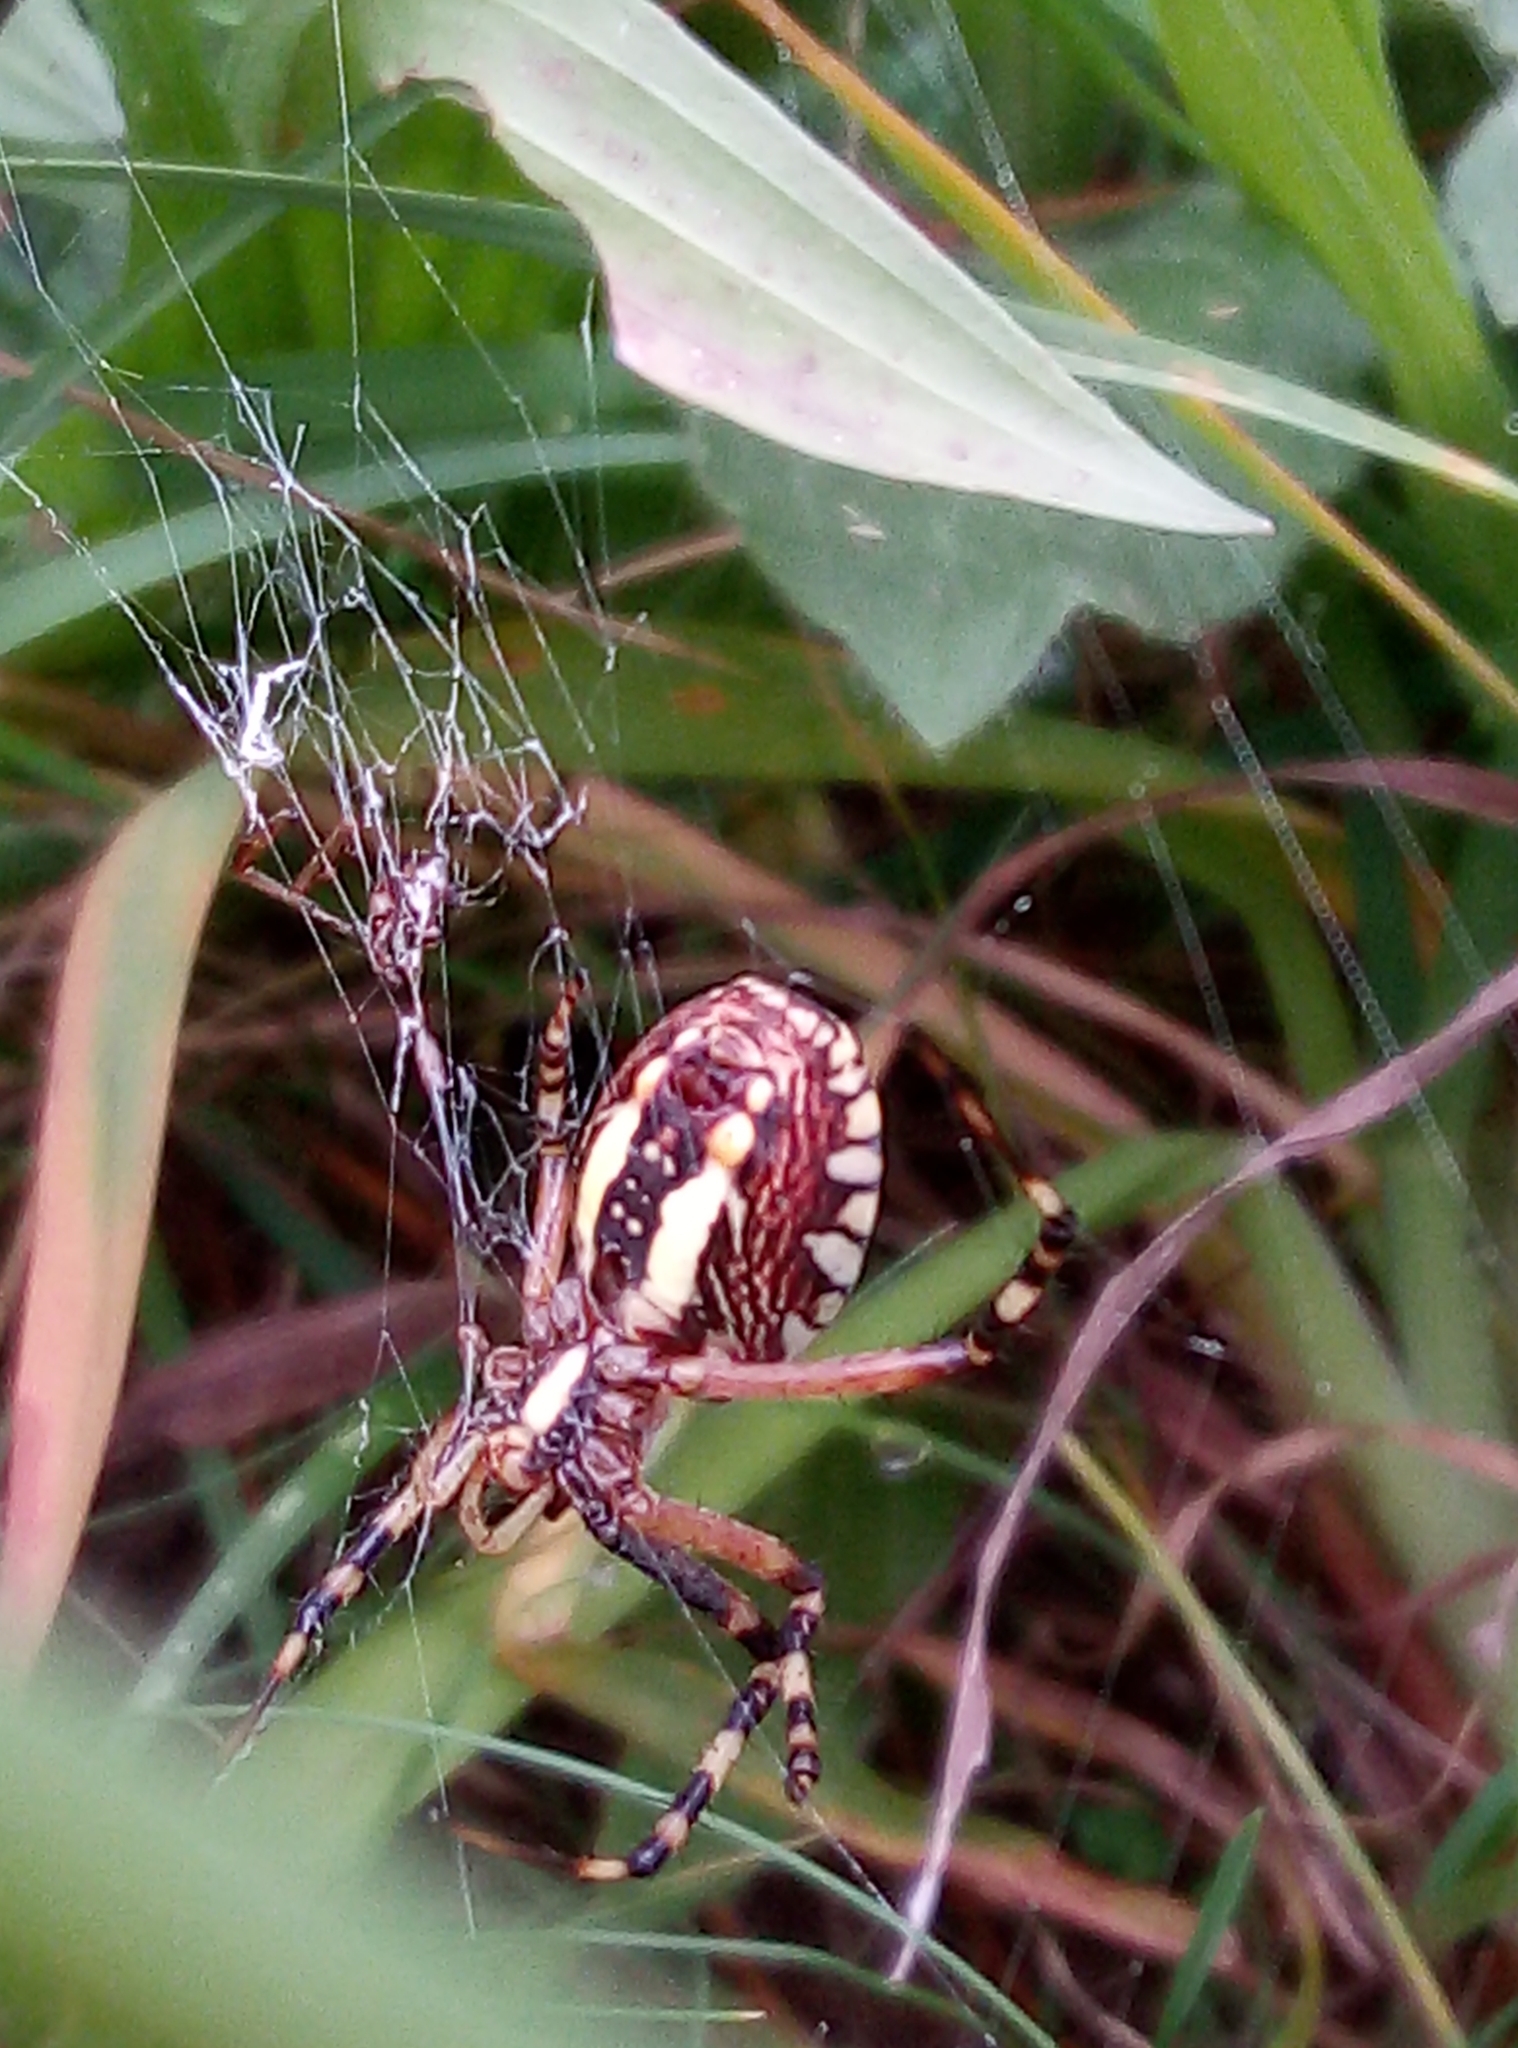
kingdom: Animalia
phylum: Arthropoda
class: Arachnida
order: Araneae
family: Araneidae
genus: Argiope
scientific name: Argiope bruennichi
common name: Wasp spider
